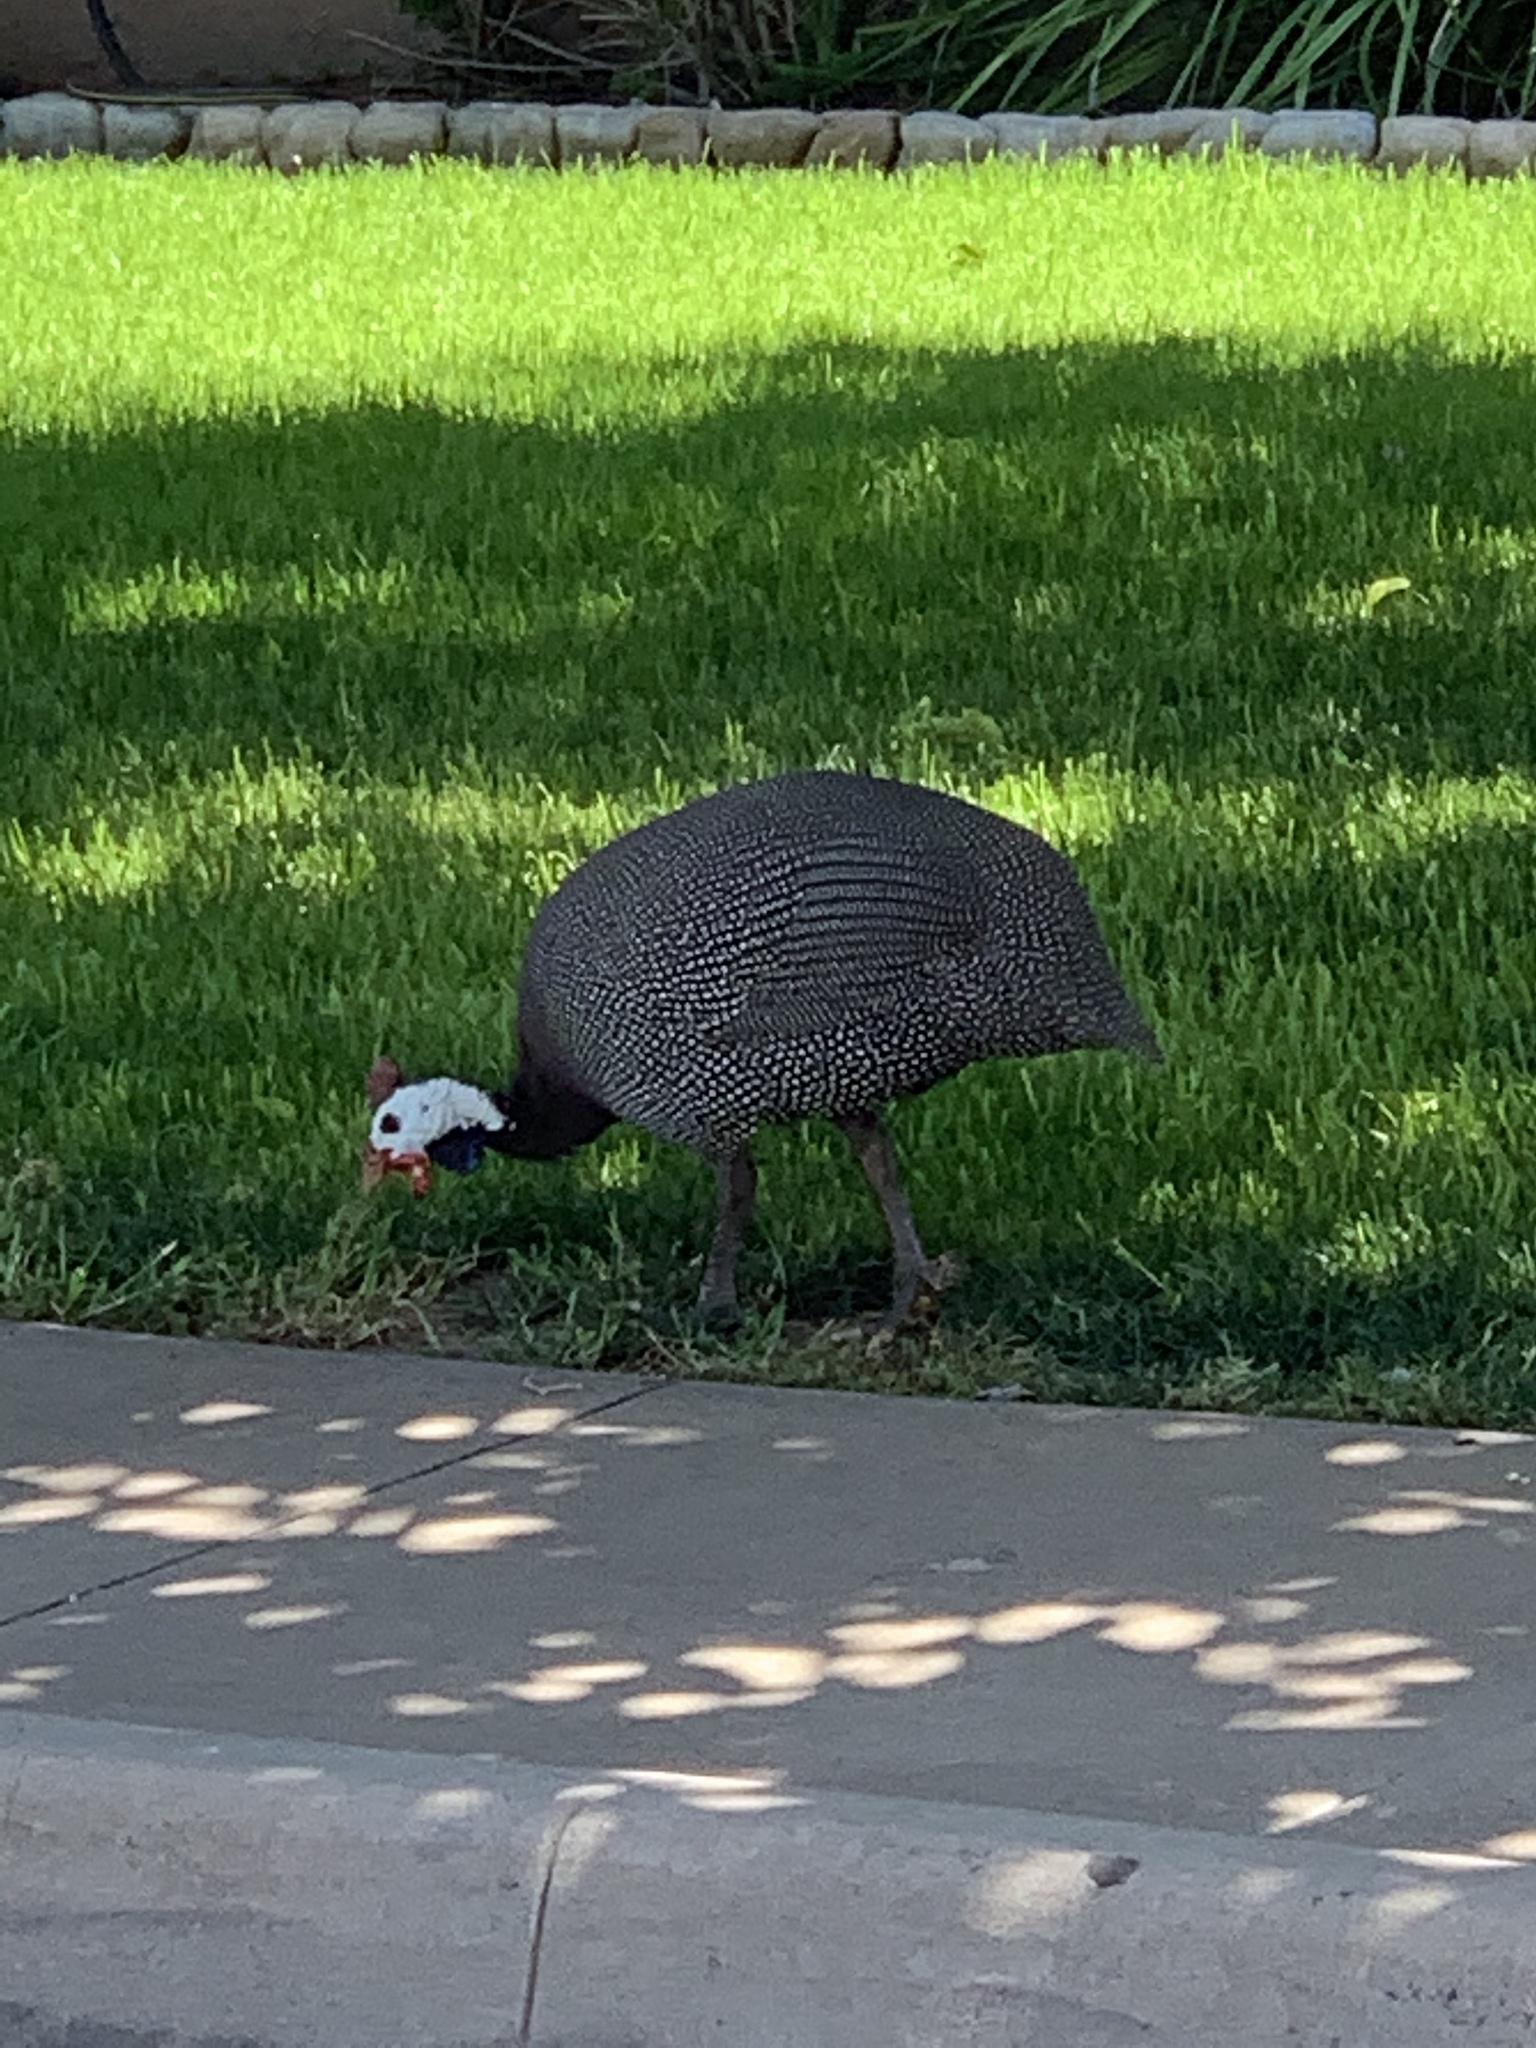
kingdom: Animalia
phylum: Chordata
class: Aves
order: Galliformes
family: Numididae
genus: Numida
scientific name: Numida meleagris
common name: Helmeted guineafowl
